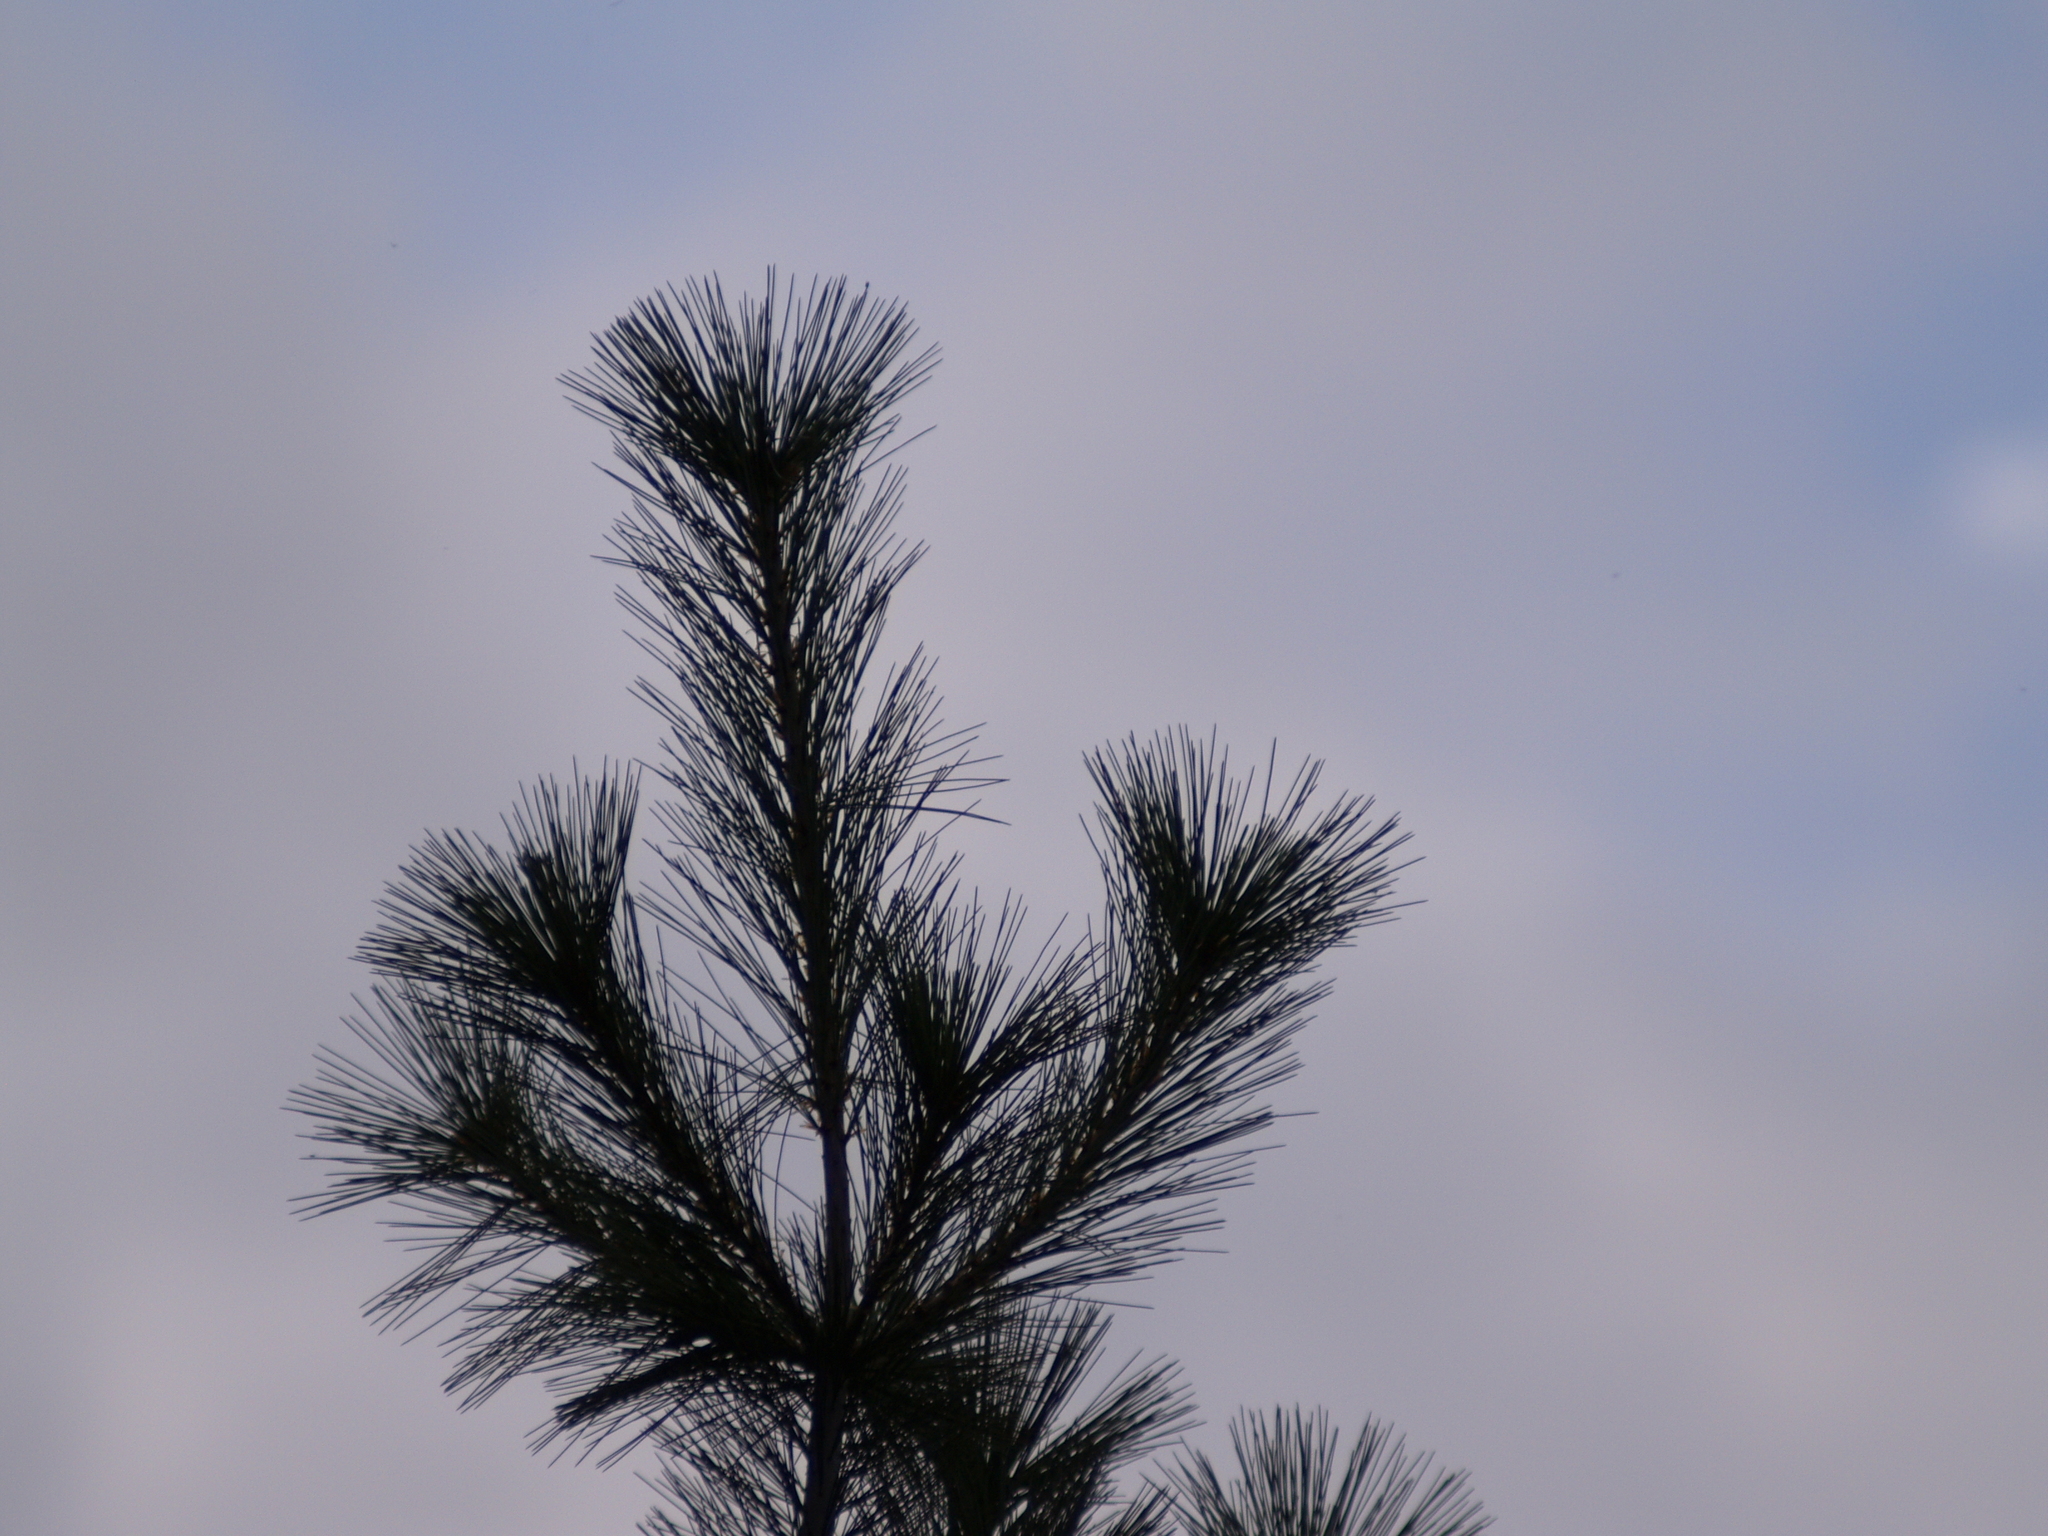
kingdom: Plantae
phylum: Tracheophyta
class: Pinopsida
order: Pinales
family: Pinaceae
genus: Pinus
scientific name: Pinus strobus
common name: Weymouth pine
